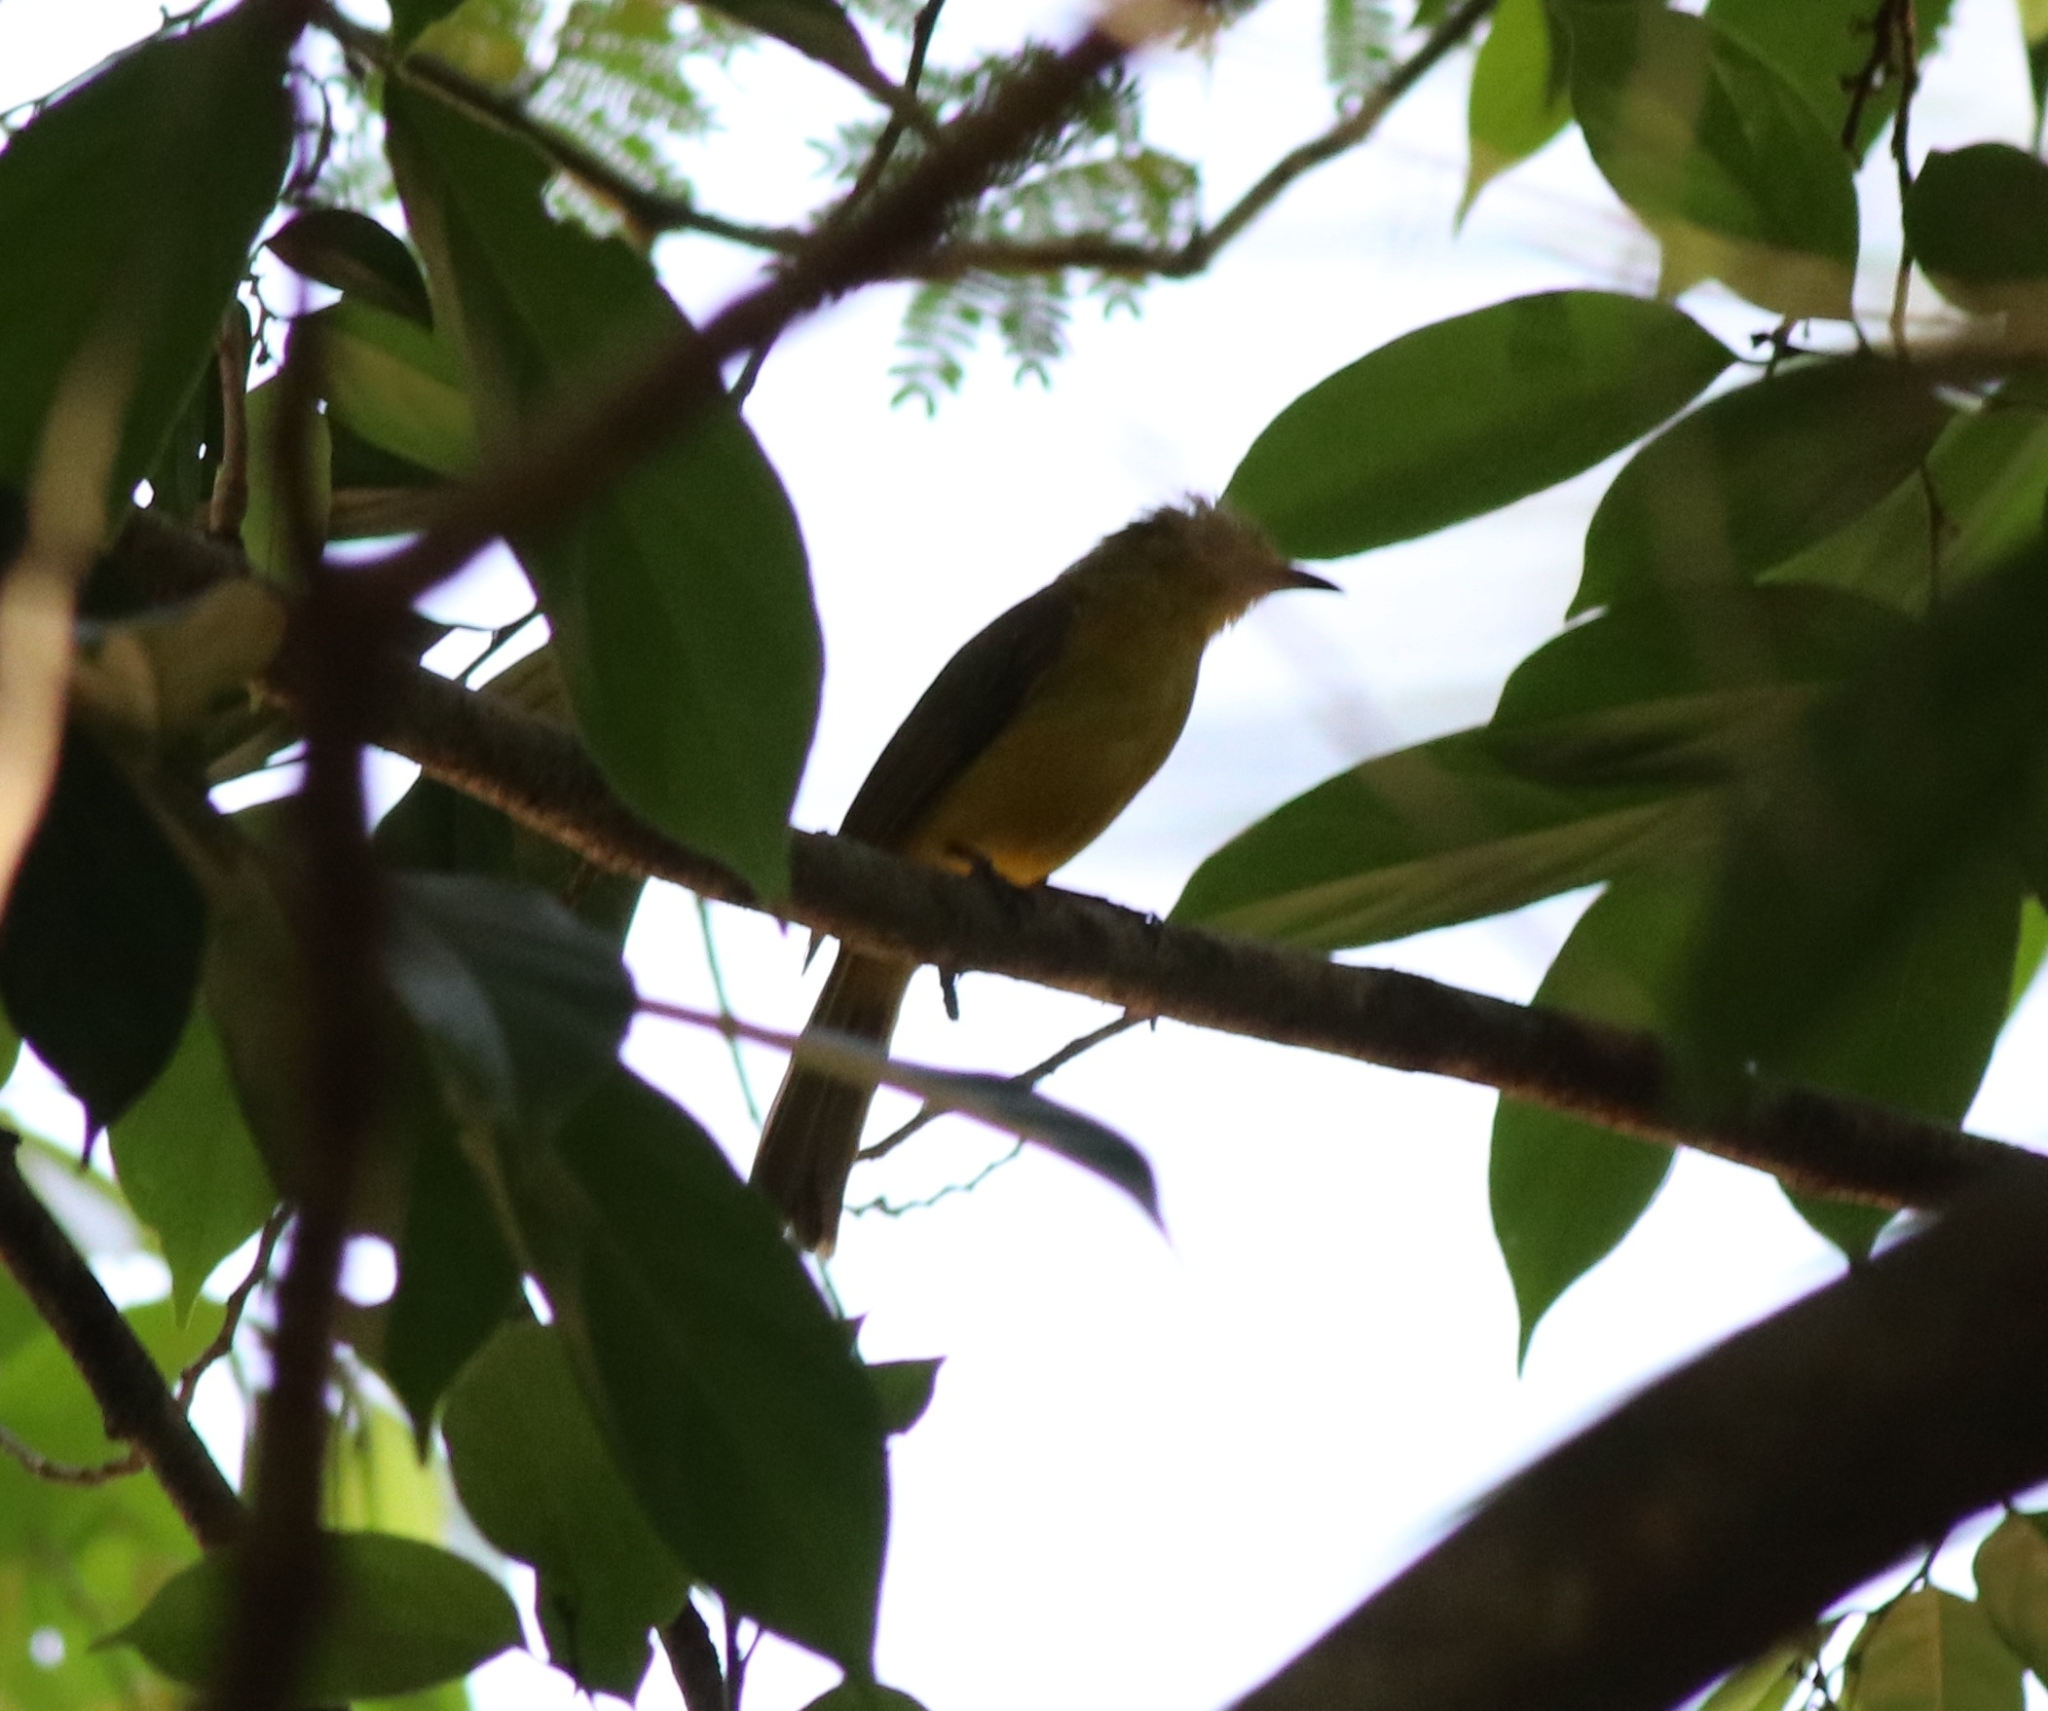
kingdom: Animalia
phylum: Chordata
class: Aves
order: Passeriformes
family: Pycnonotidae
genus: Acritillas
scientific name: Acritillas indica
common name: Yellow-browed bulbul
